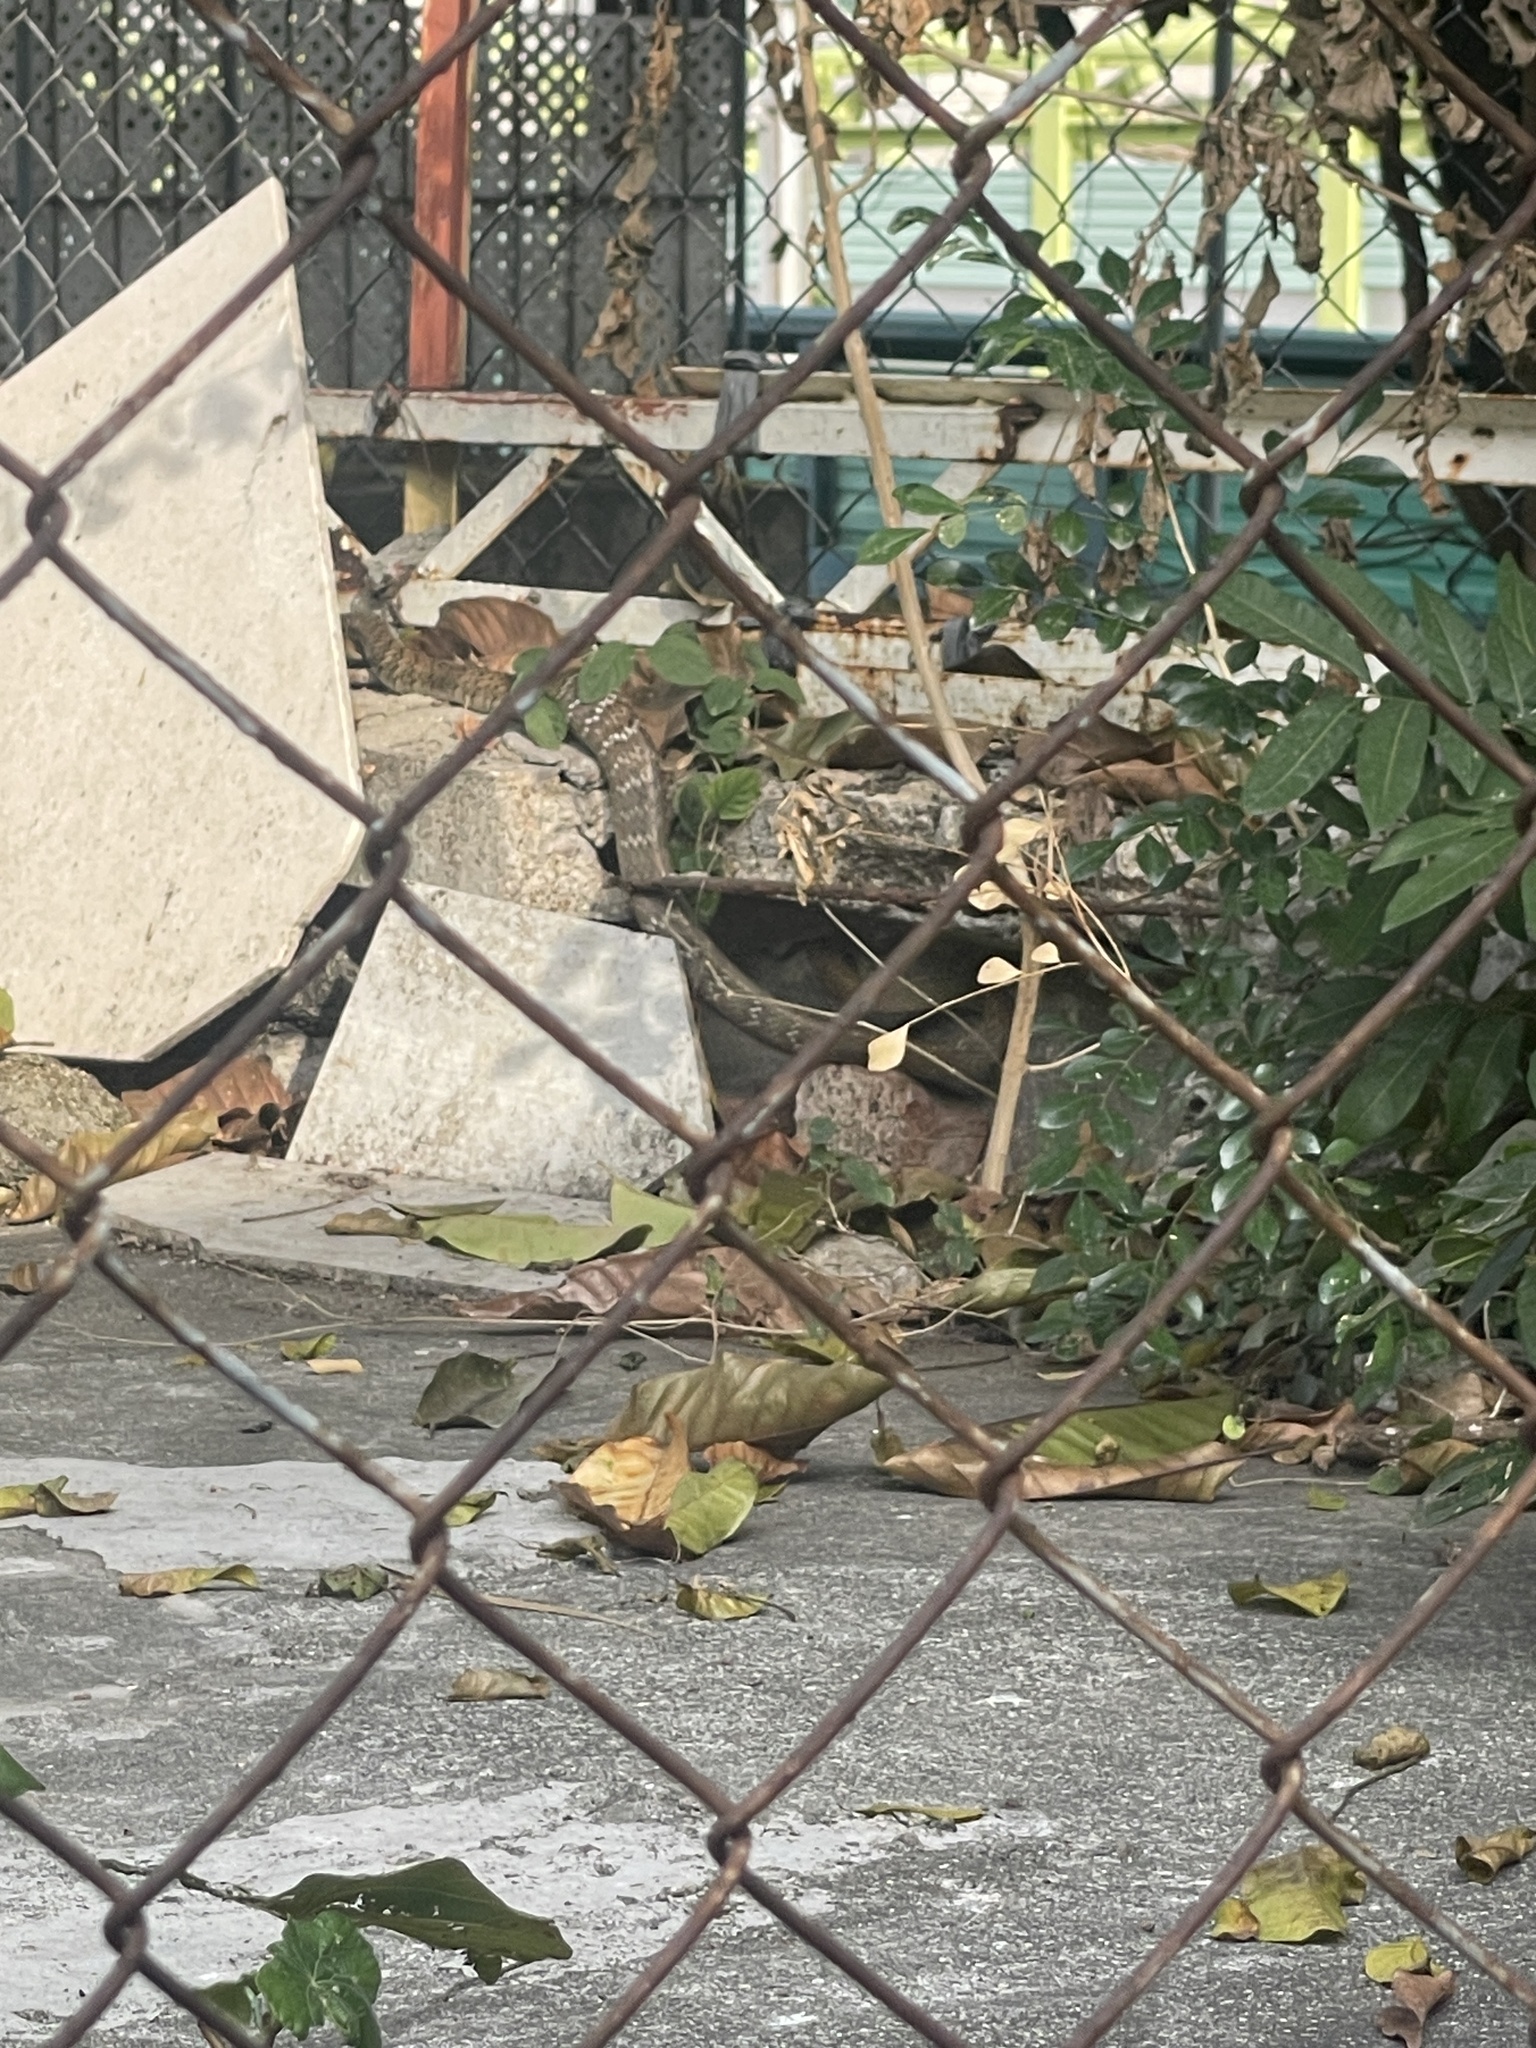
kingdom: Animalia
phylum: Chordata
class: Squamata
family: Colubridae
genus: Ptyas
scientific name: Ptyas mucosa
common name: Oriental ratsnake
